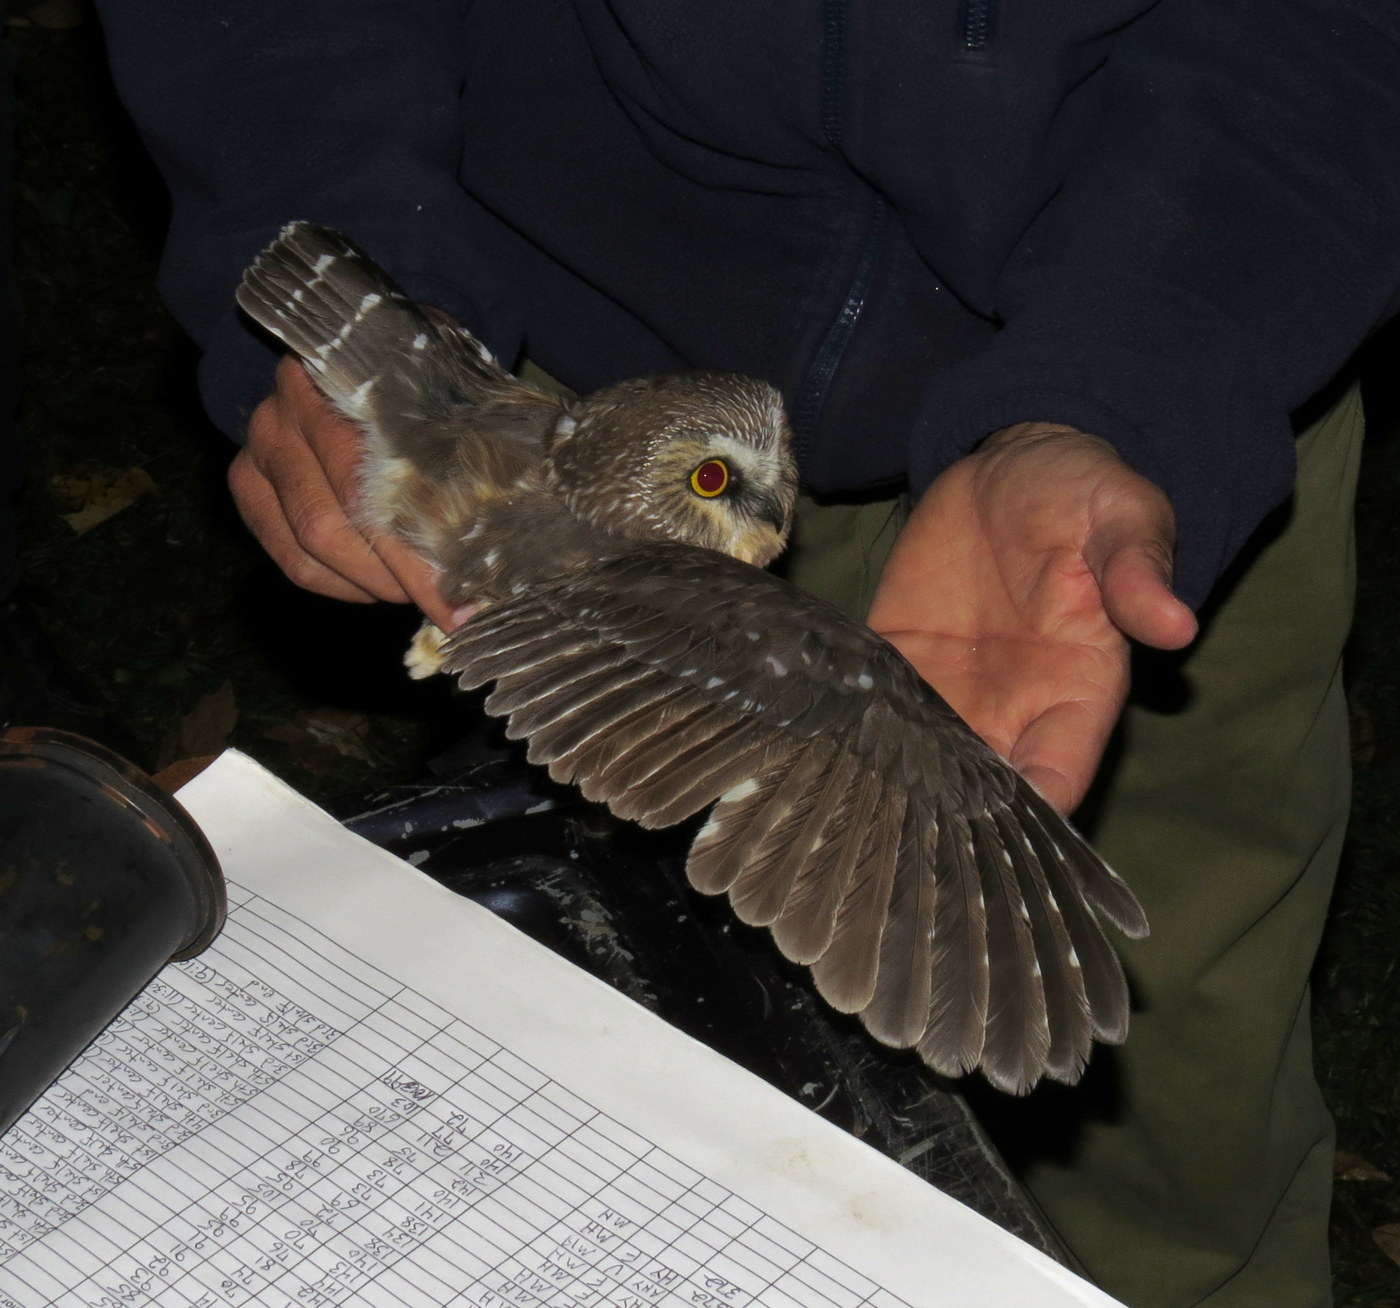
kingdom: Animalia
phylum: Chordata
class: Aves
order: Strigiformes
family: Strigidae
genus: Aegolius
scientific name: Aegolius acadicus
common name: Northern saw-whet owl
